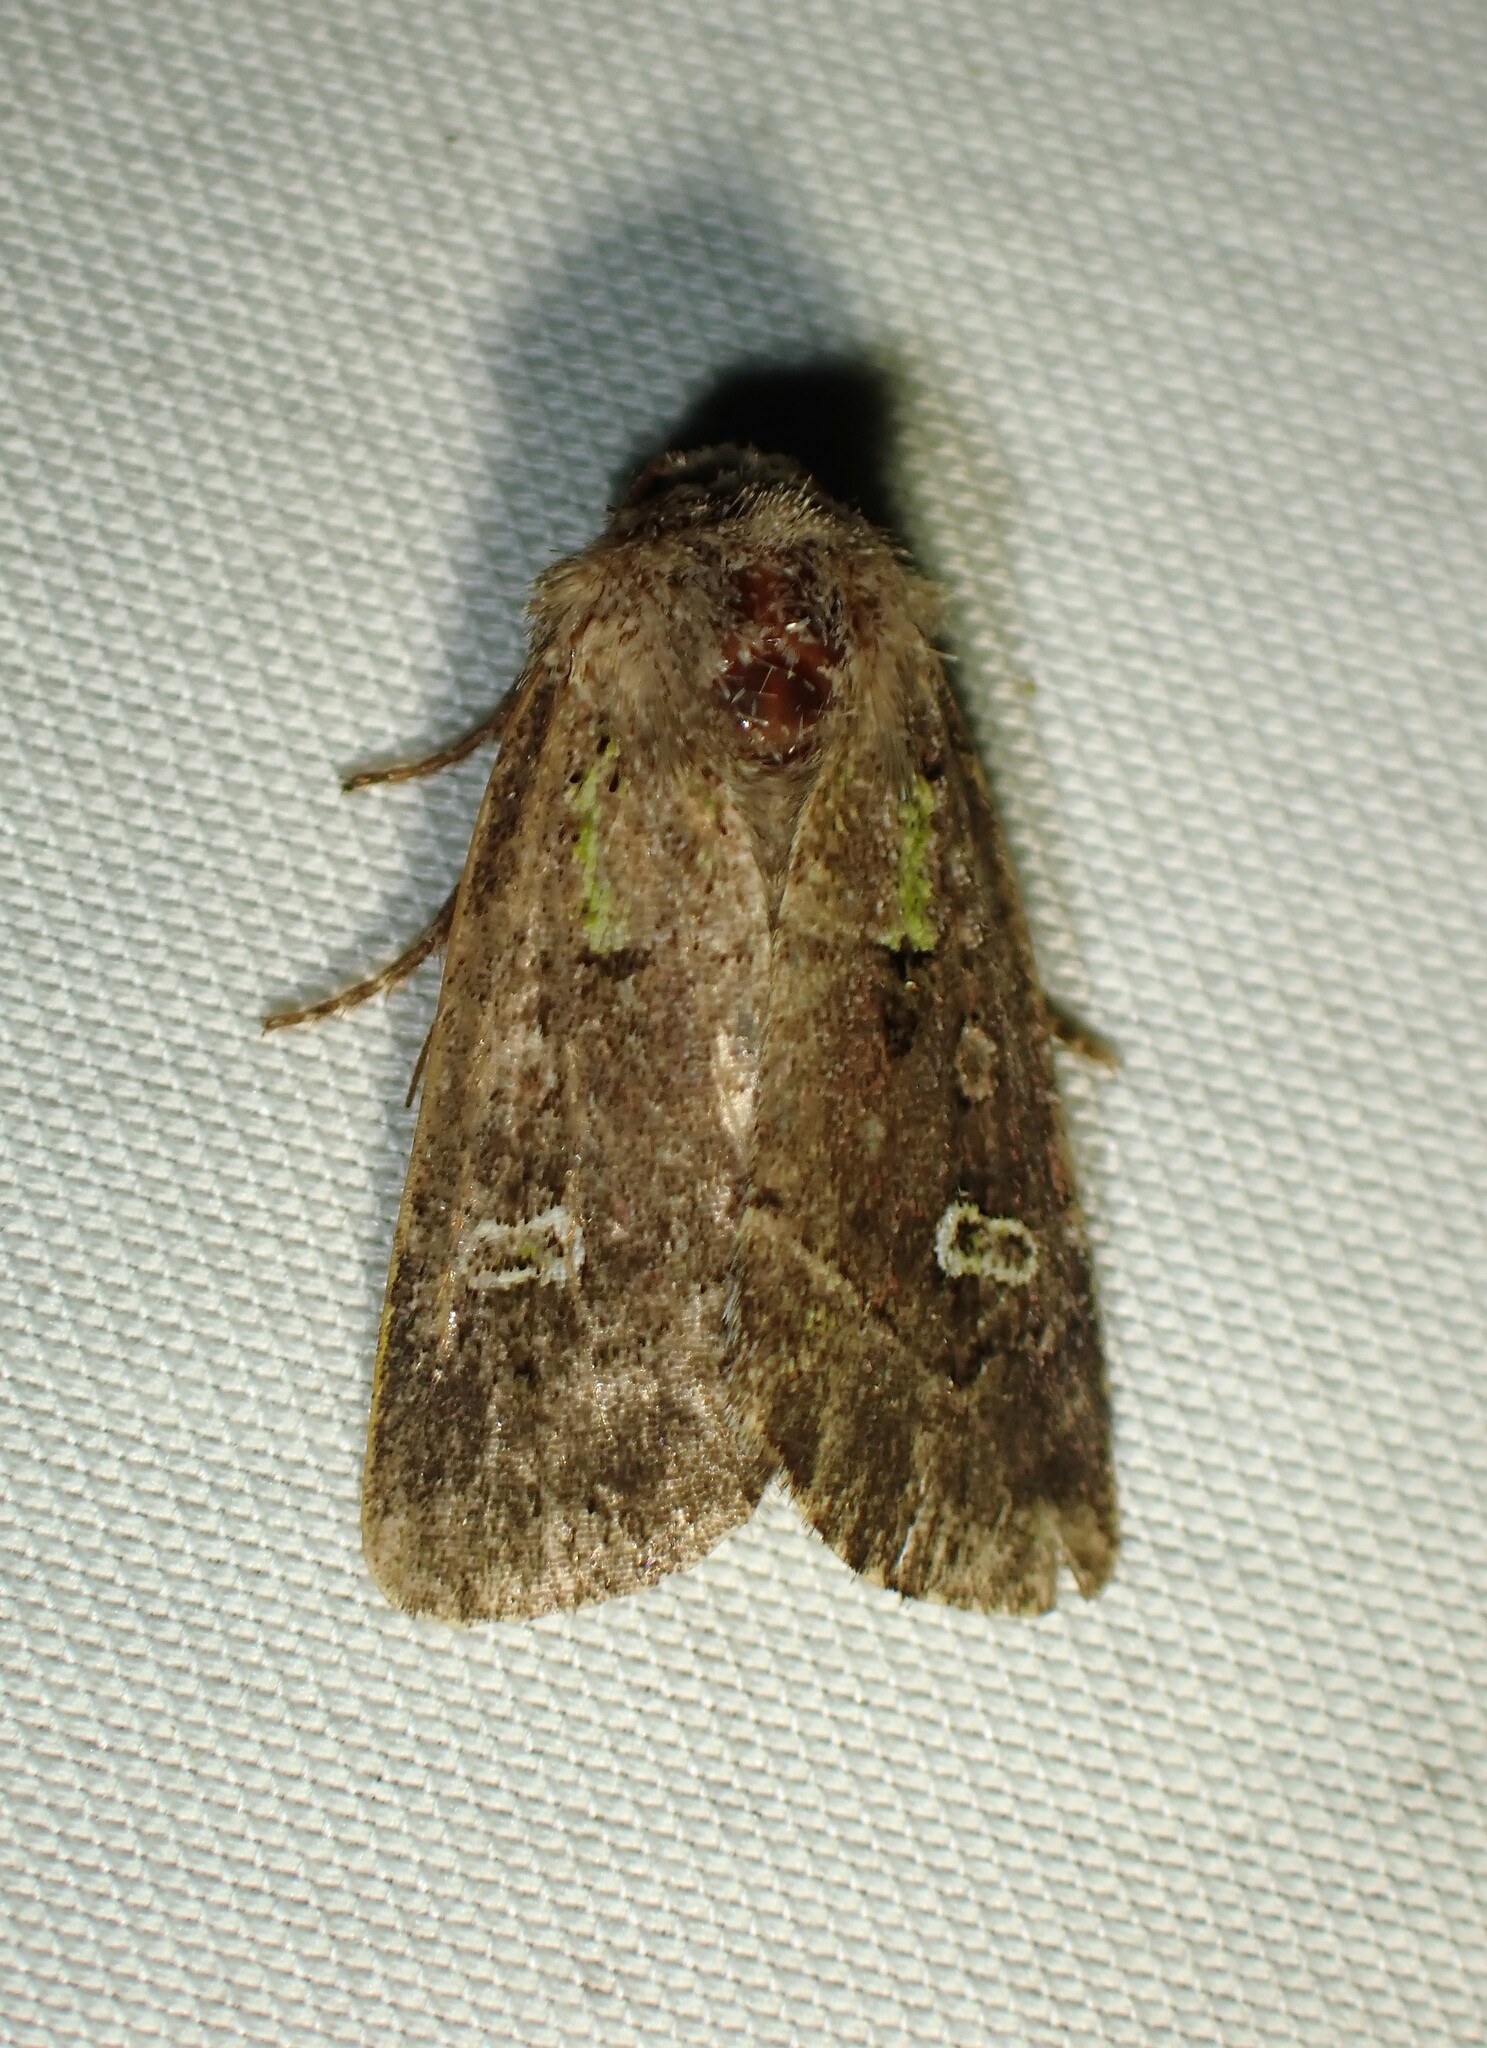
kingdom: Animalia
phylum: Arthropoda
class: Insecta
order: Lepidoptera
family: Noctuidae
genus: Lacinipolia
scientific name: Lacinipolia renigera
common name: Kidney-spotted minor
